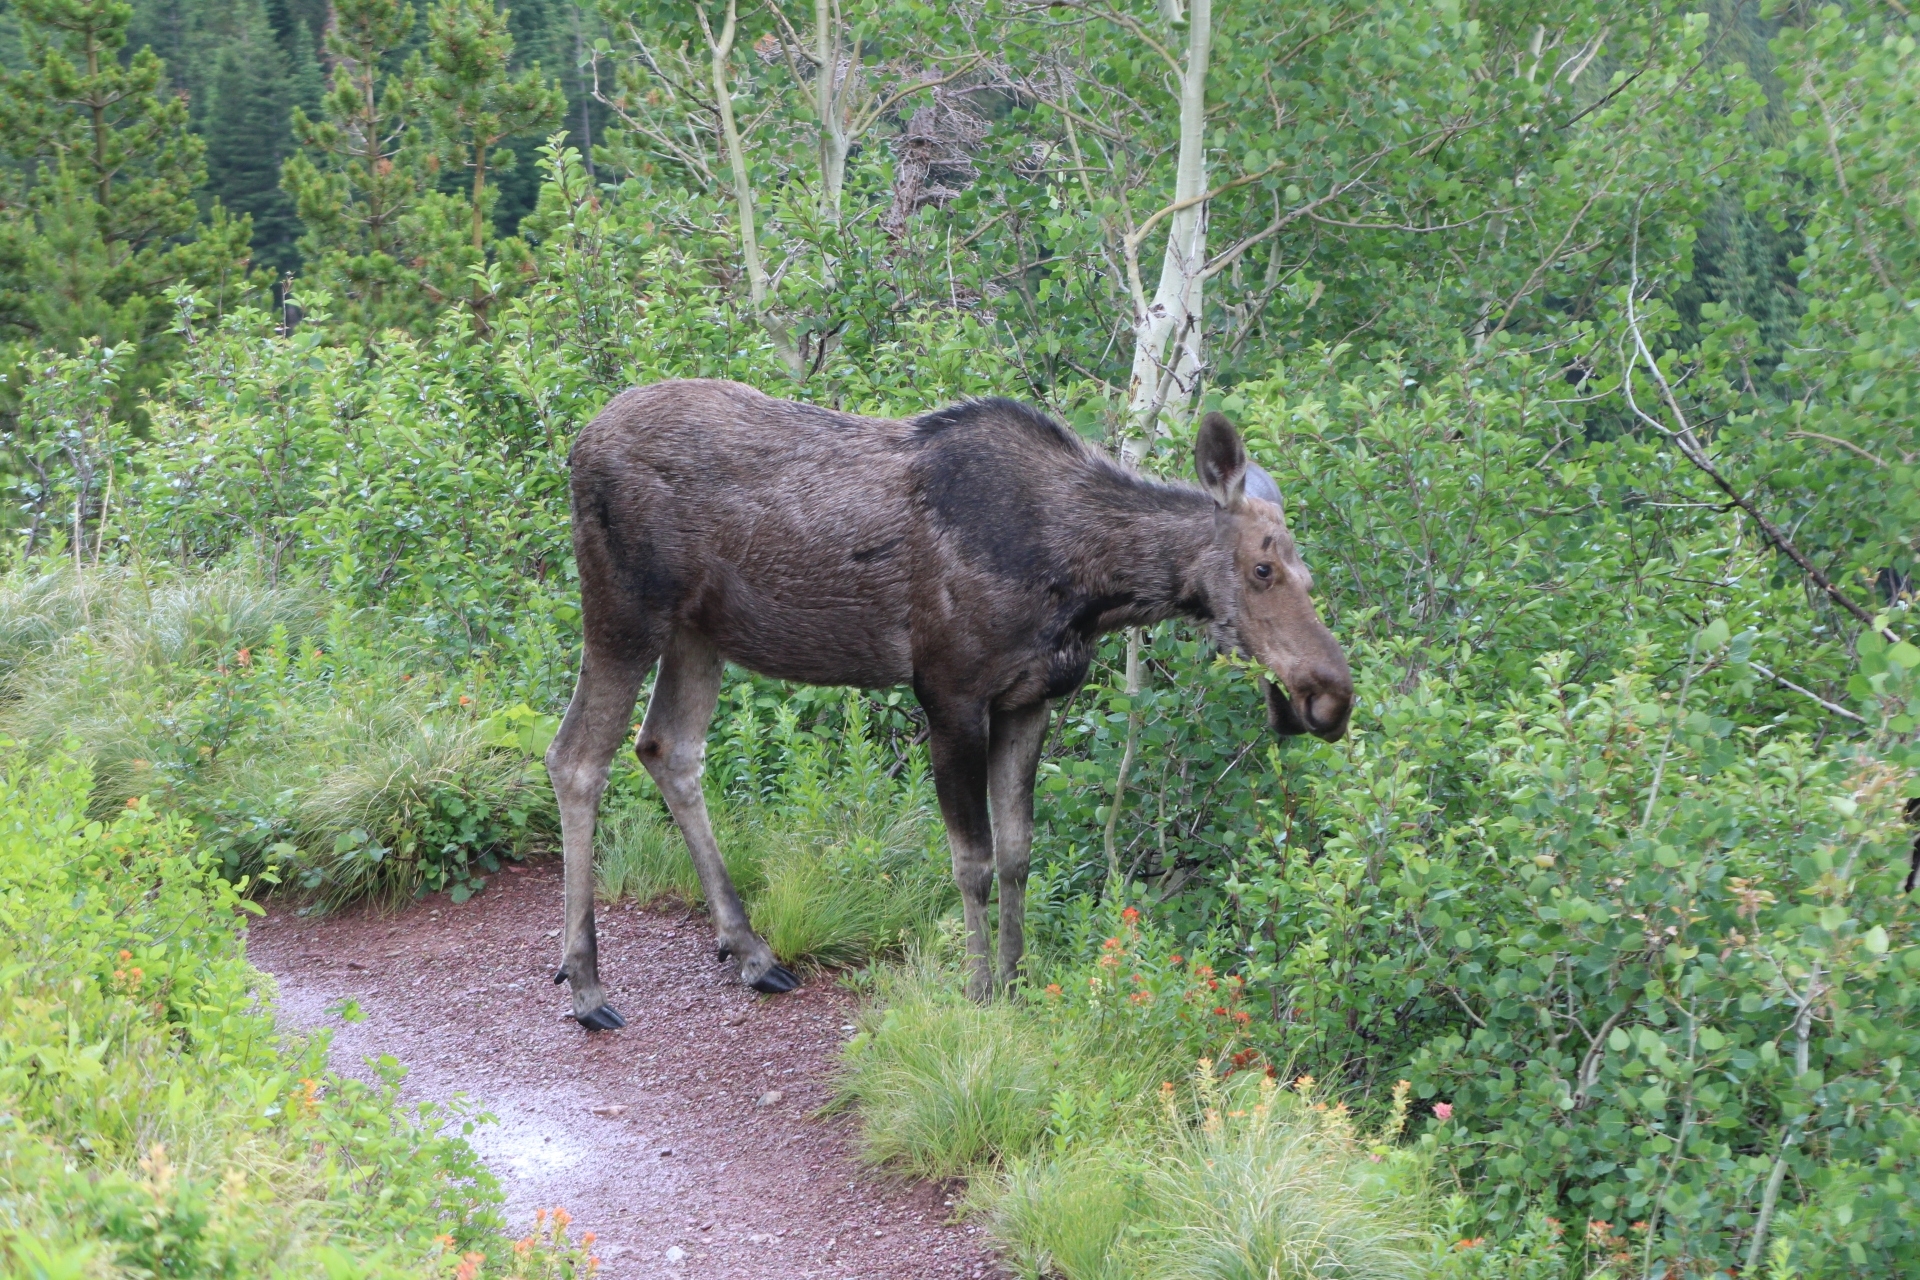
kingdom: Animalia
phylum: Chordata
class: Mammalia
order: Artiodactyla
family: Cervidae
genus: Alces
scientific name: Alces americanus
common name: Moose
